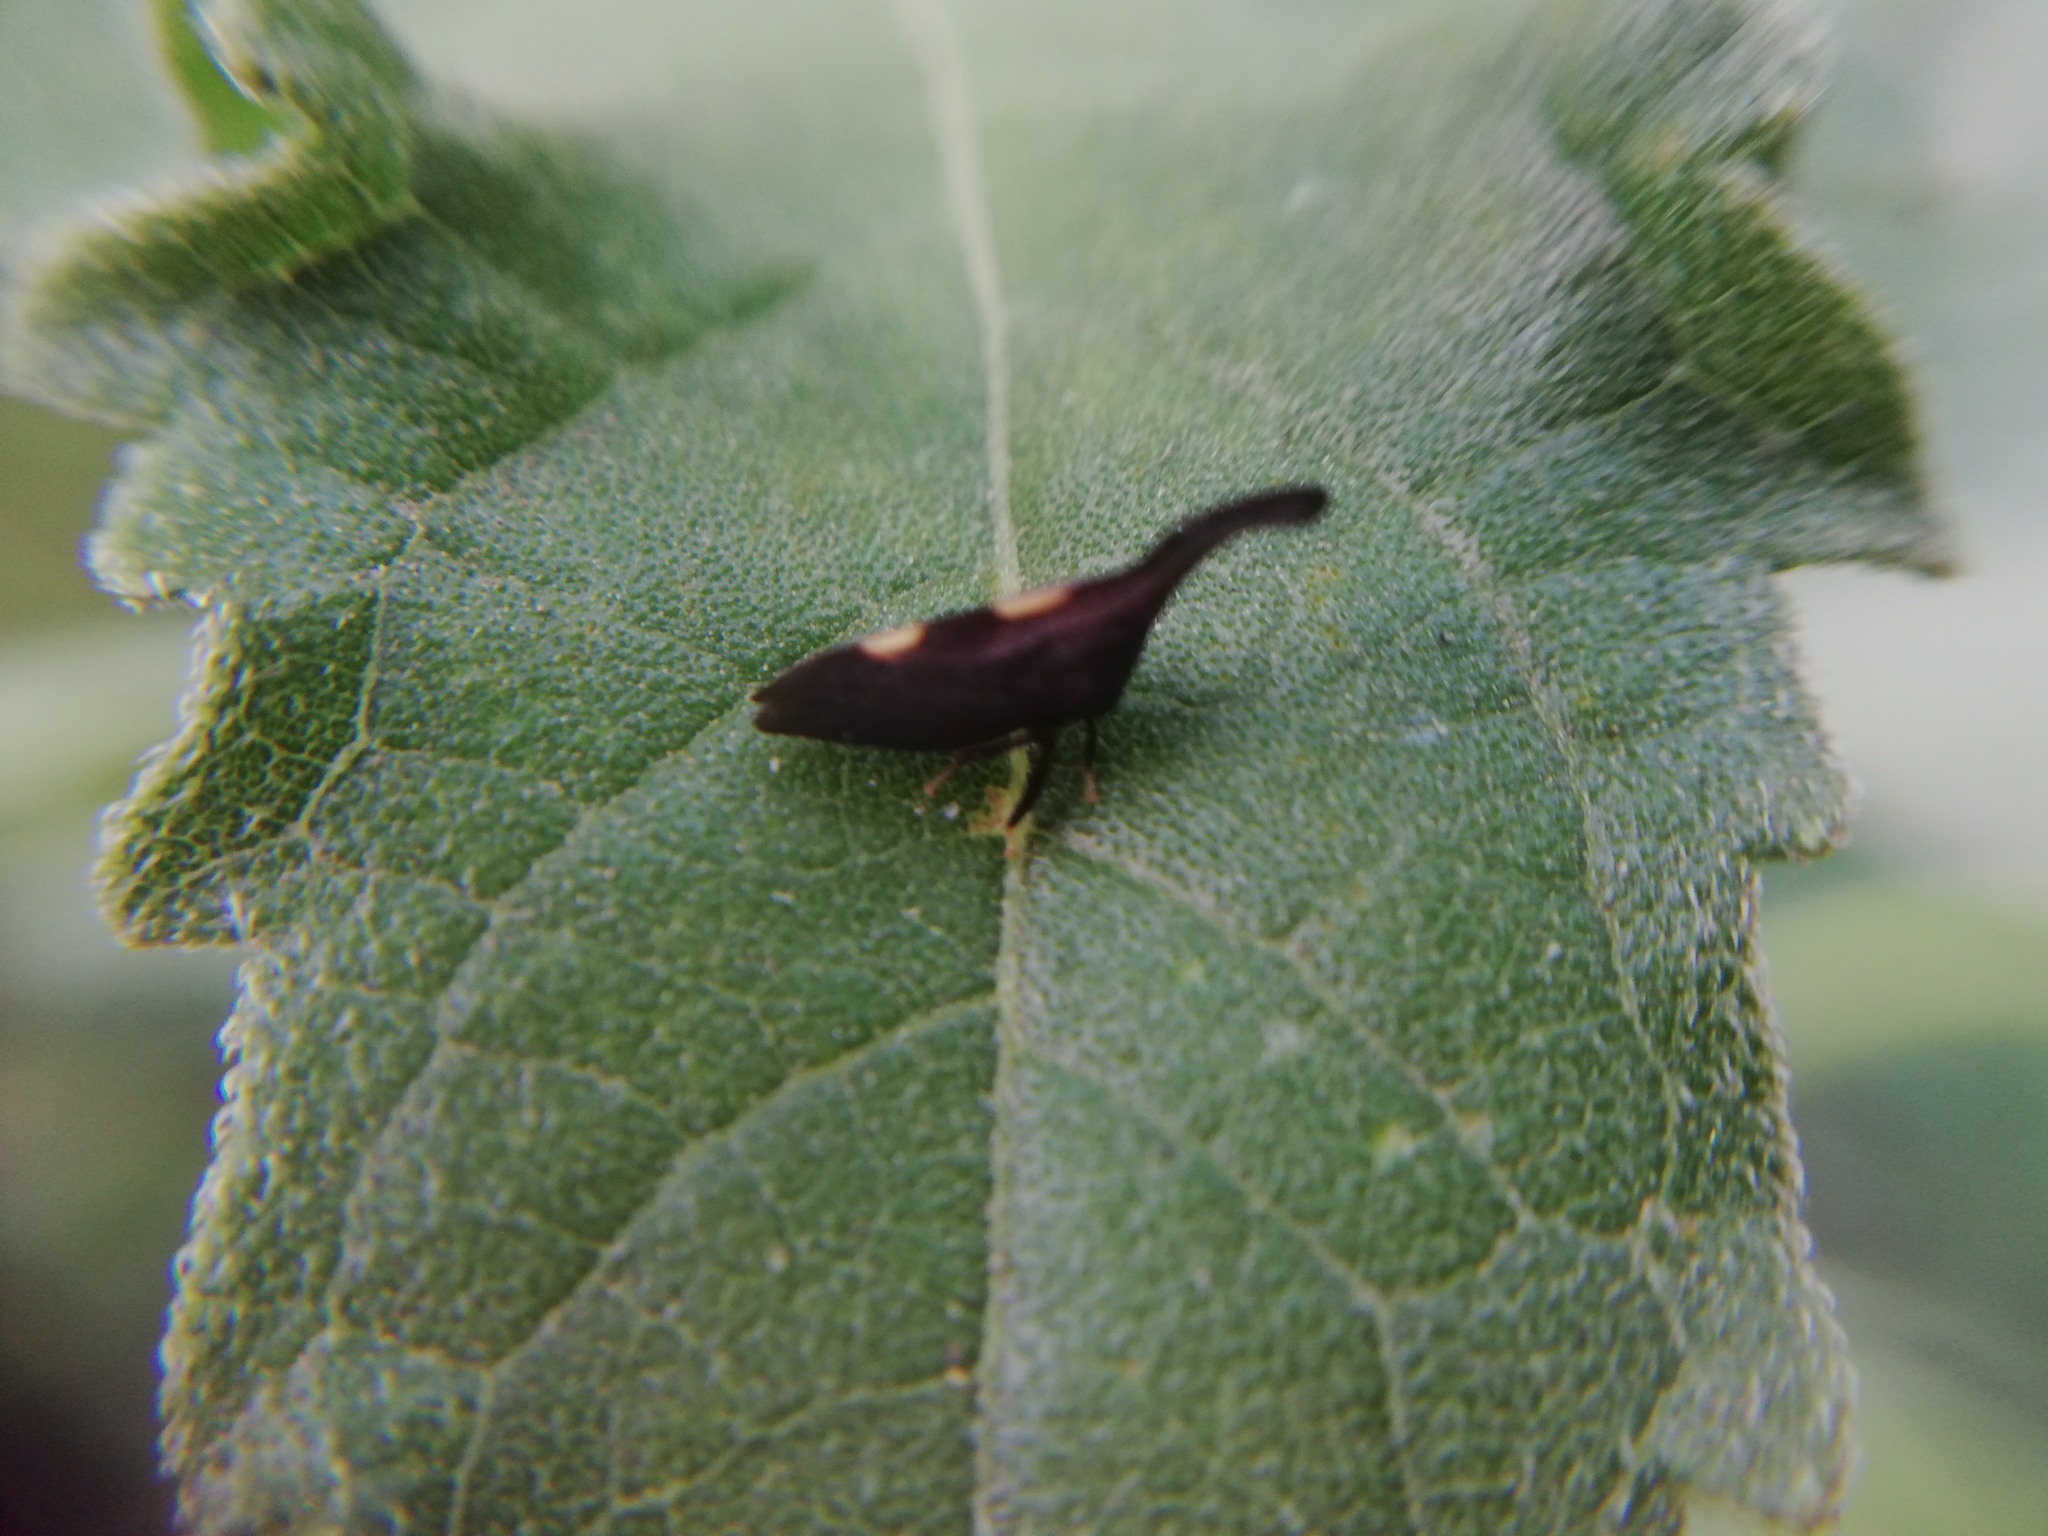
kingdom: Animalia
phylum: Arthropoda
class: Insecta
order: Hemiptera
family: Membracidae
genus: Enchenopa
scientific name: Enchenopa
